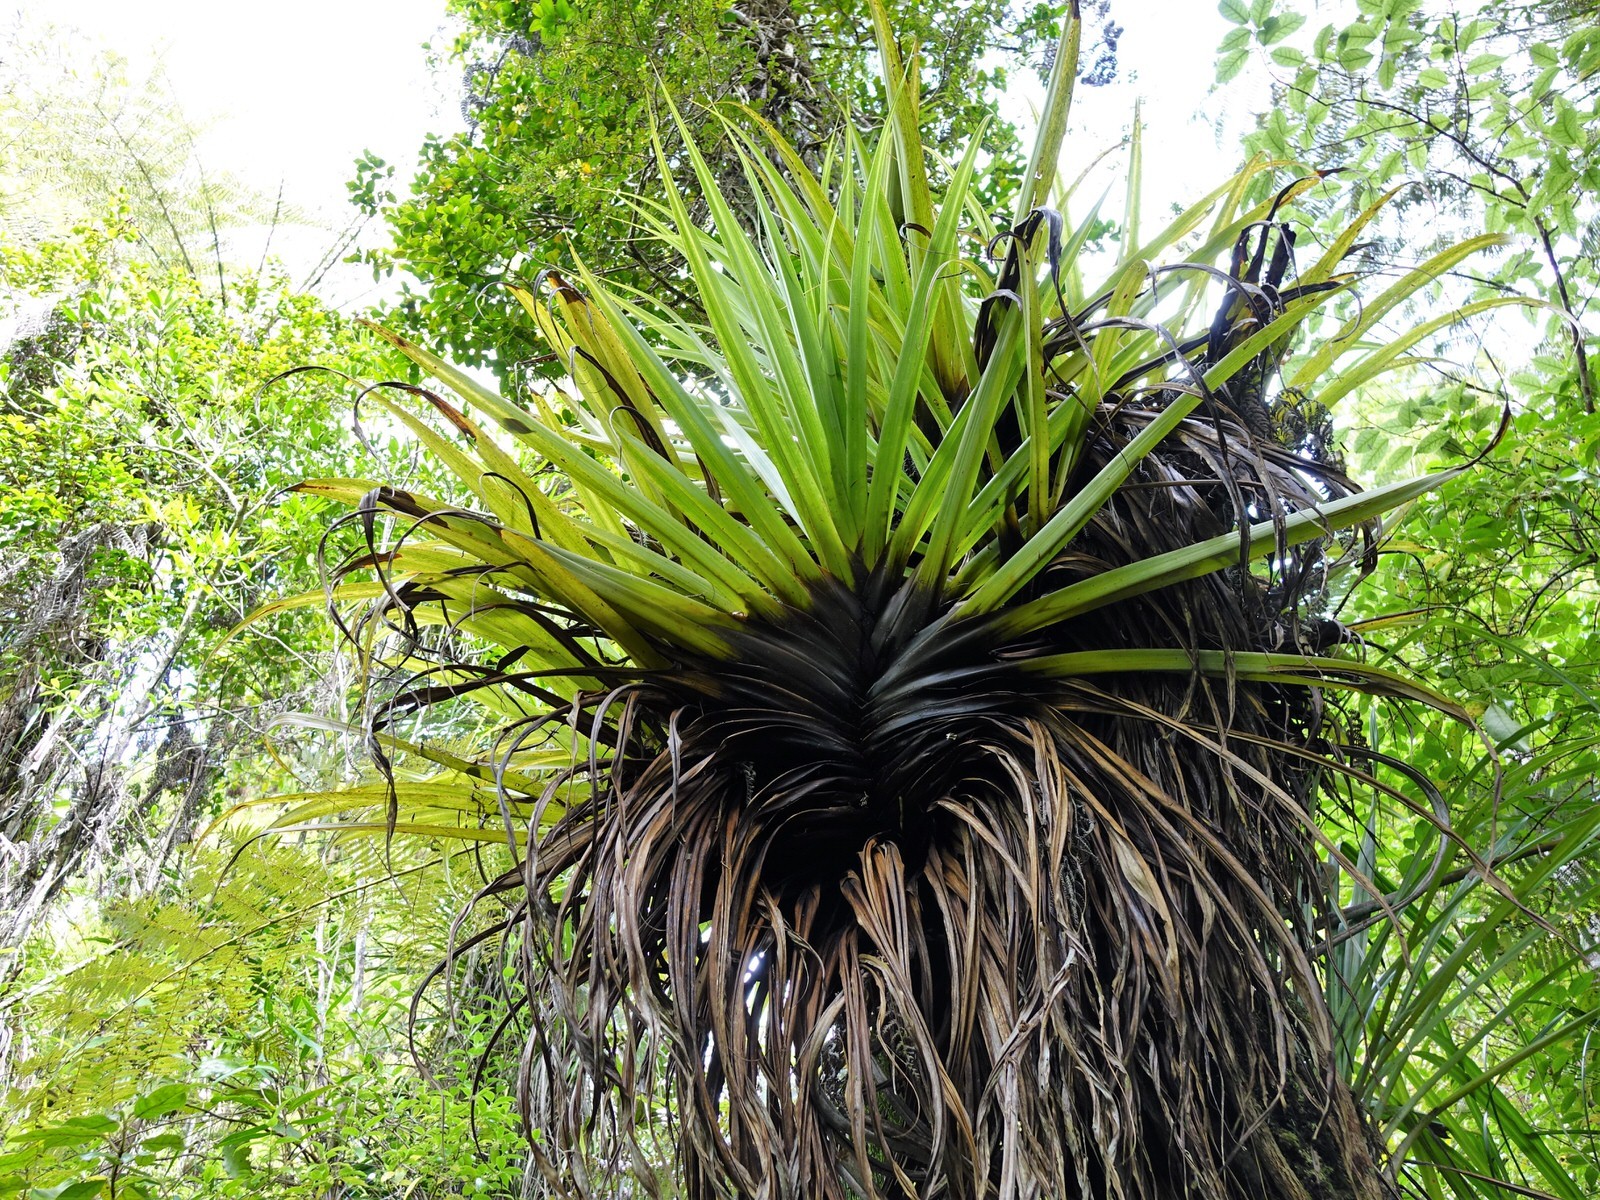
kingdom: Plantae
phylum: Tracheophyta
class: Liliopsida
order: Asparagales
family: Asteliaceae
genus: Astelia
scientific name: Astelia hastata
